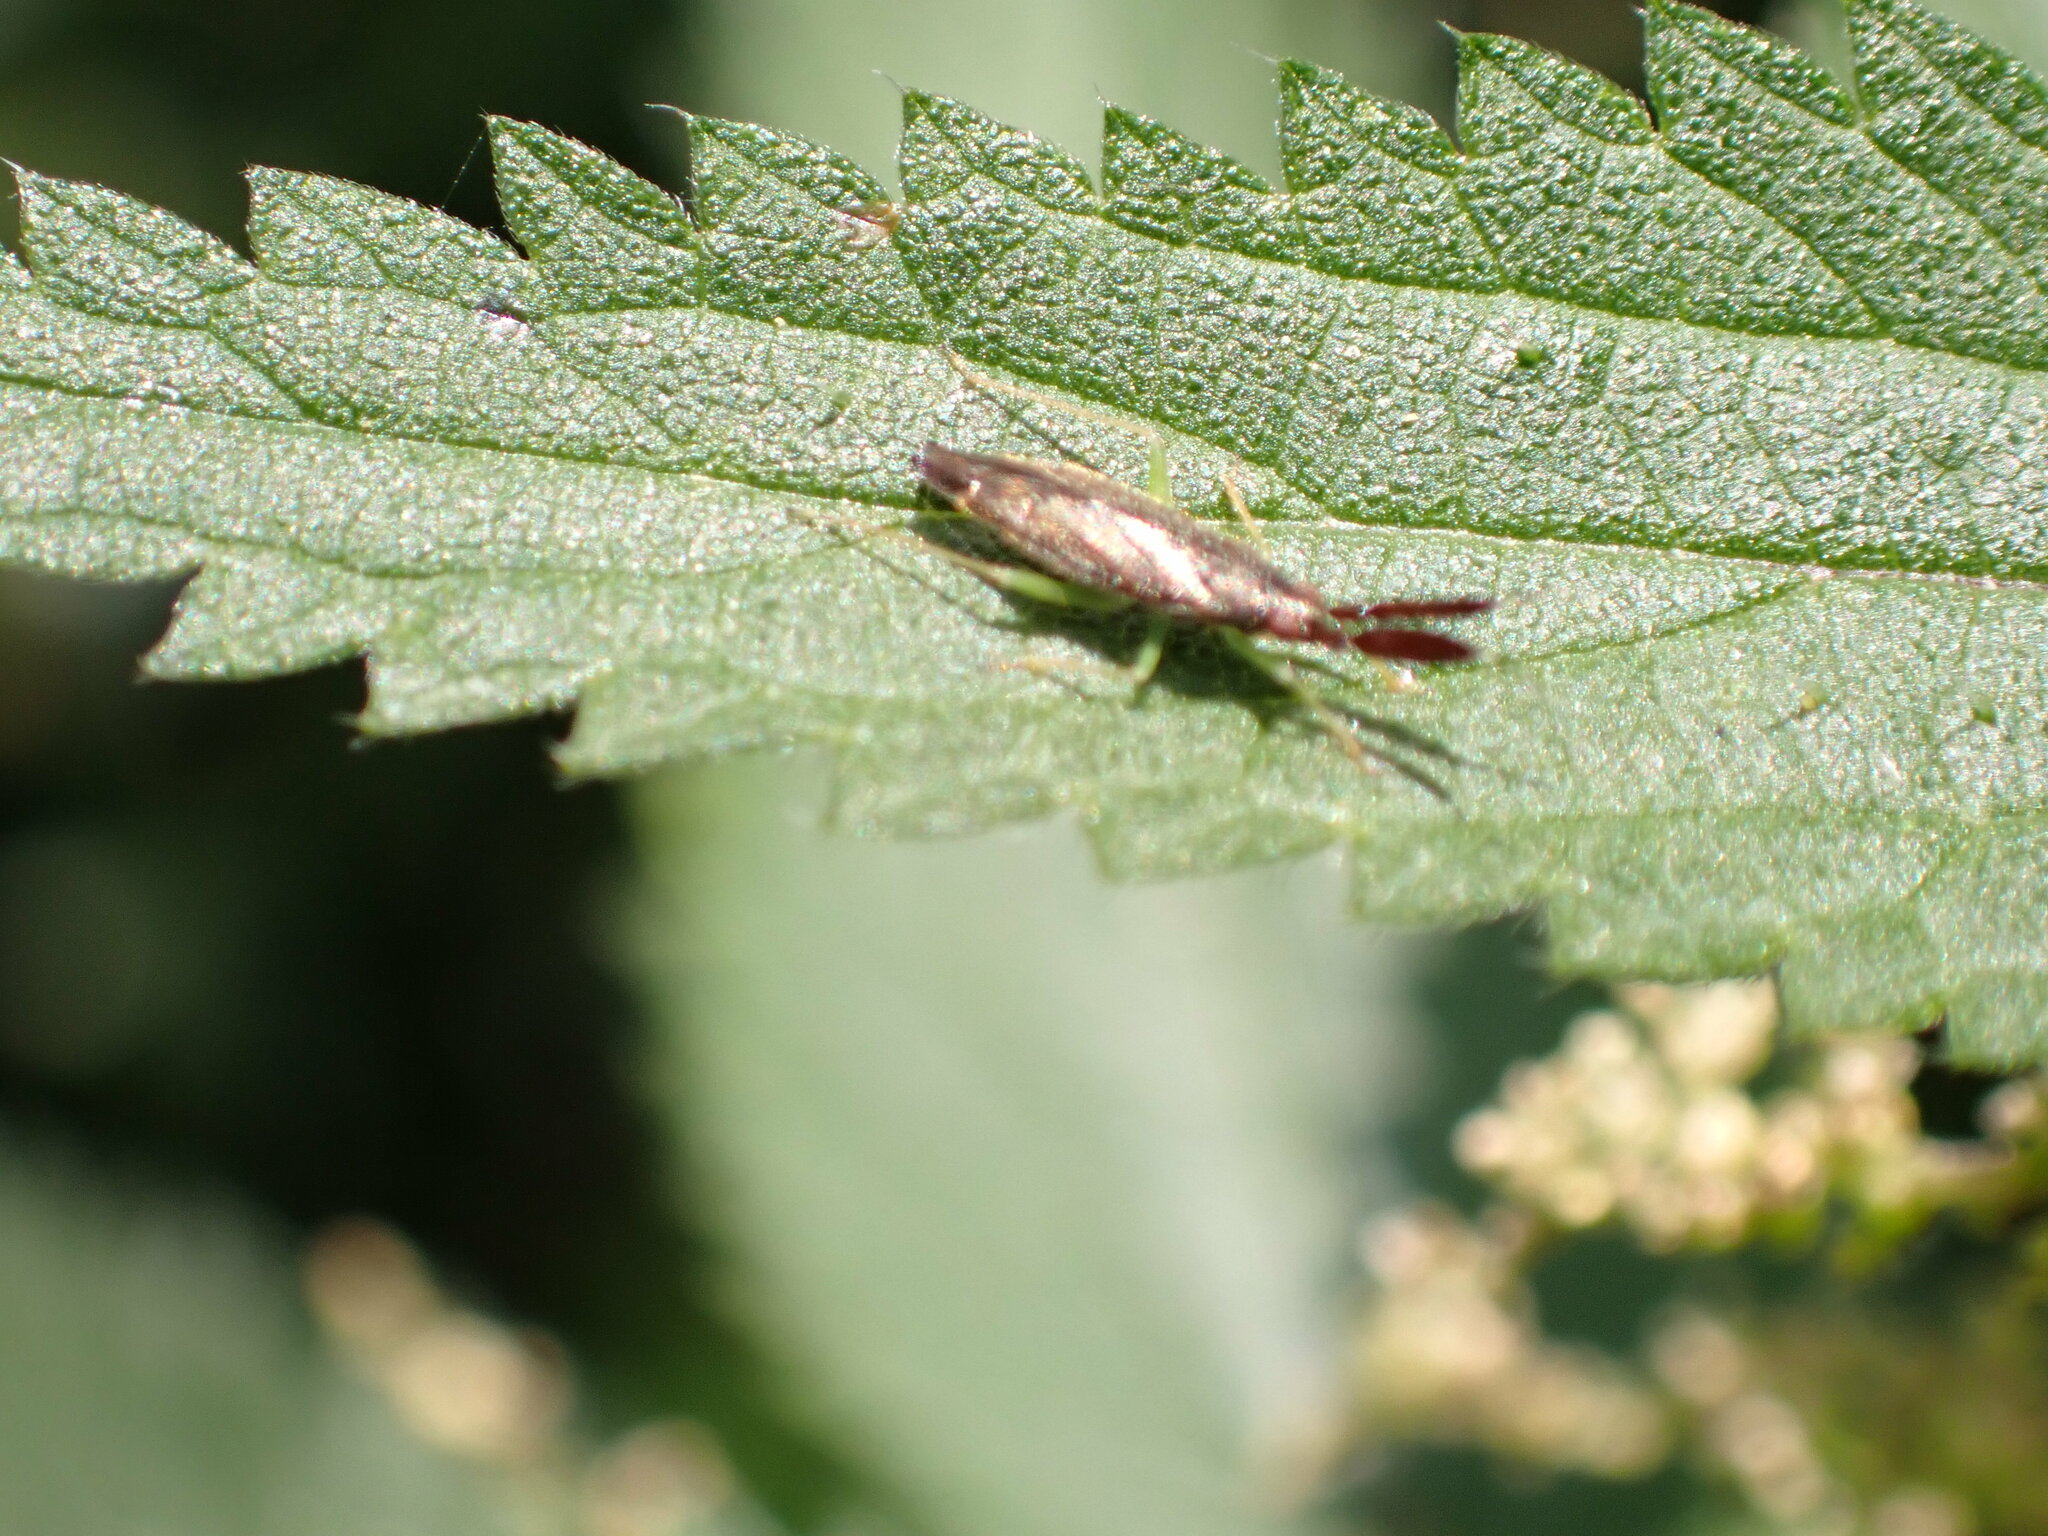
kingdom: Animalia
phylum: Arthropoda
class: Insecta
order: Hemiptera
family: Miridae
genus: Heterotoma
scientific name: Heterotoma planicornis
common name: Plant bug
